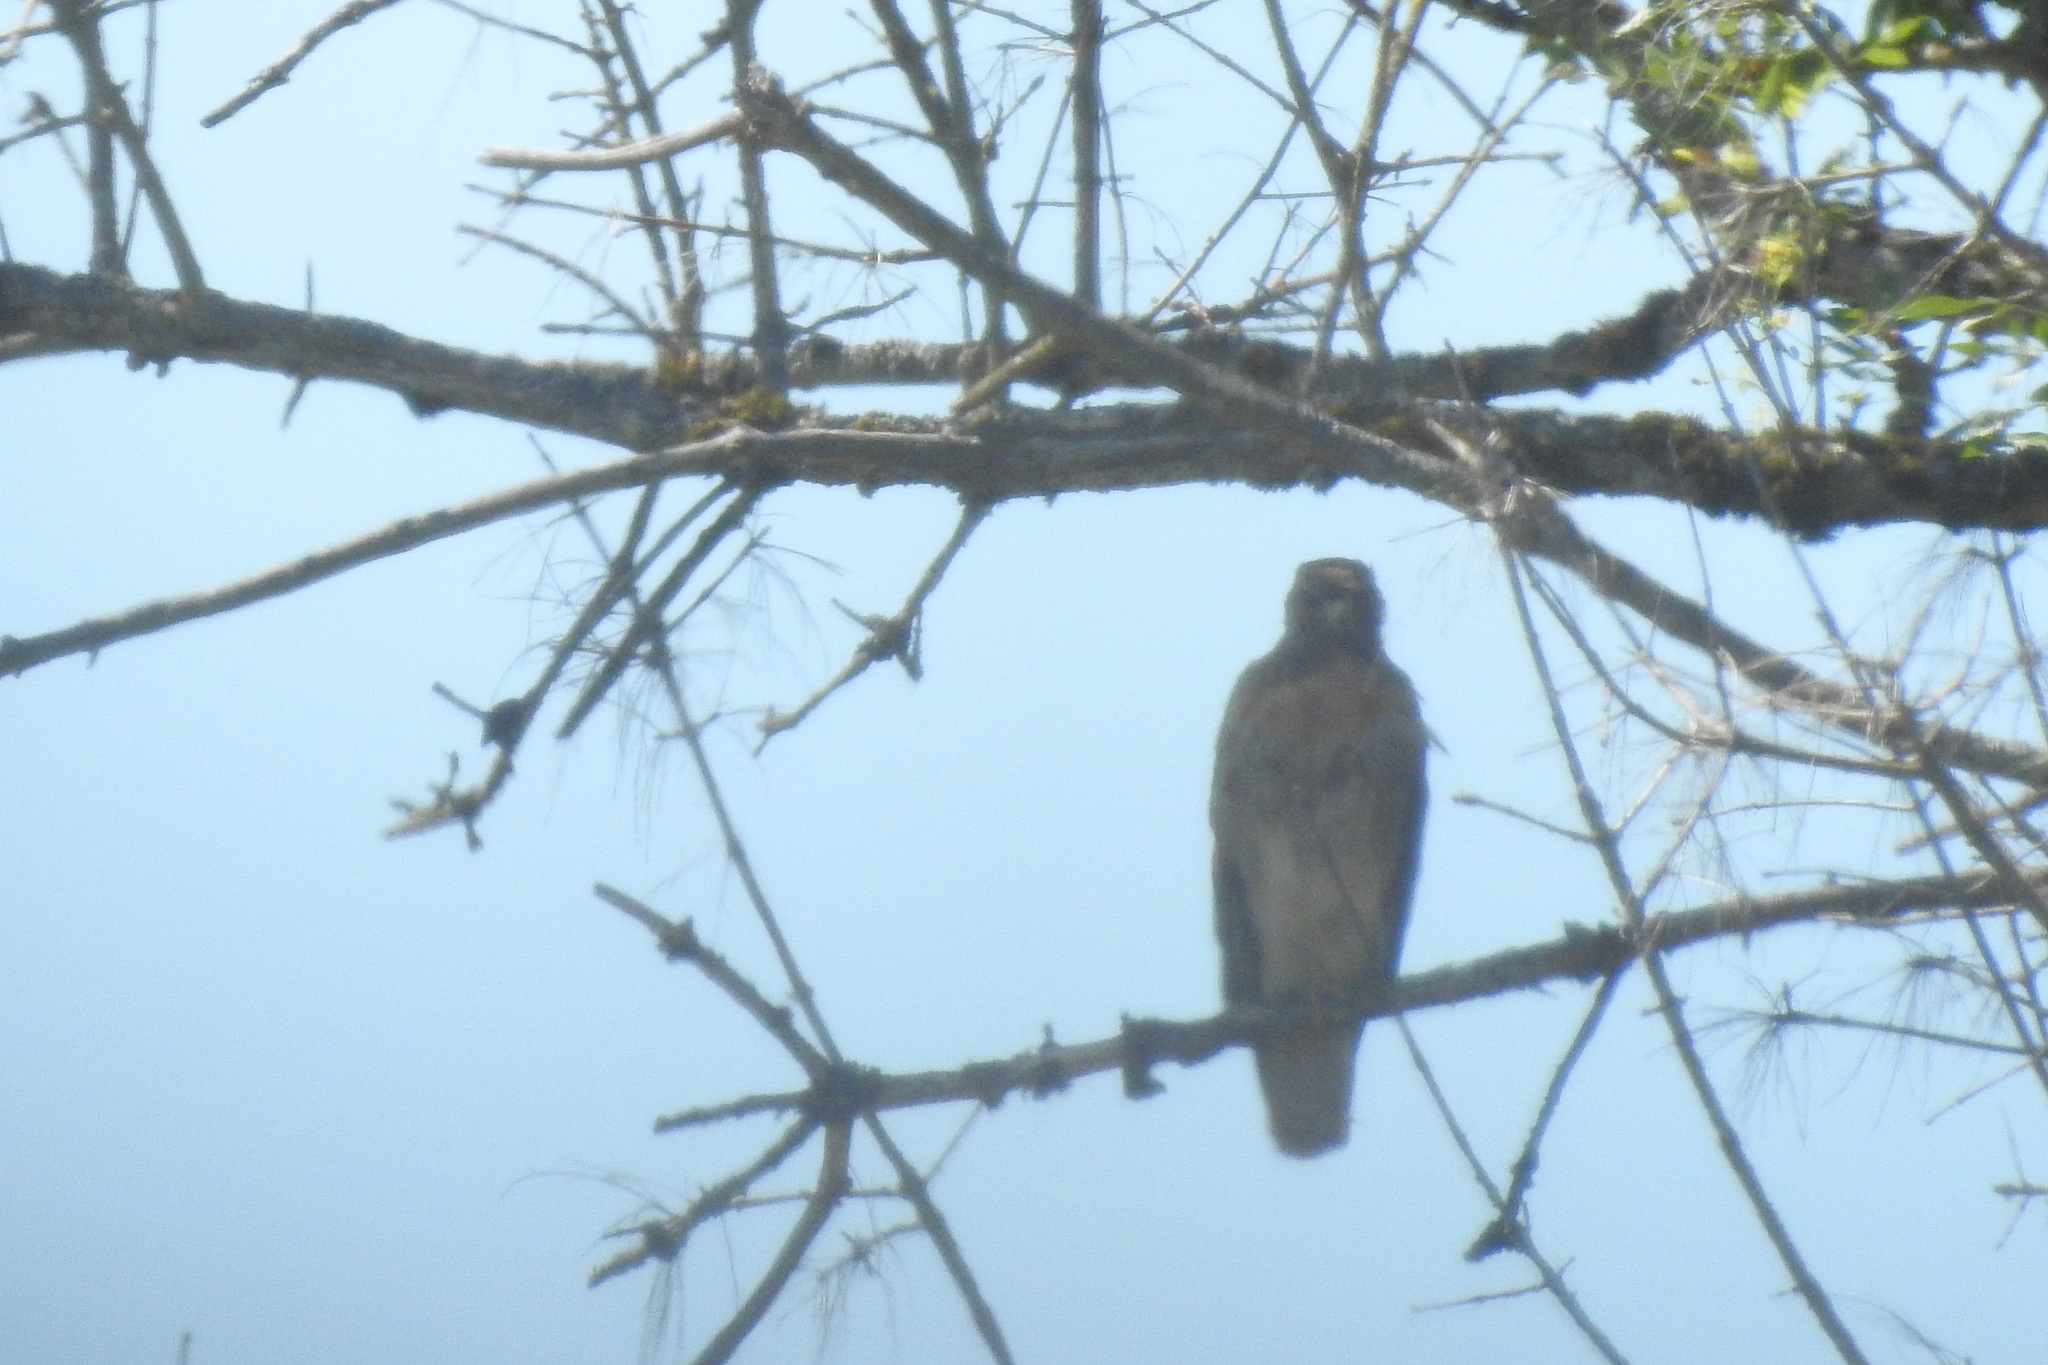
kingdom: Animalia
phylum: Chordata
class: Aves
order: Accipitriformes
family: Accipitridae
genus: Buteo
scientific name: Buteo jamaicensis
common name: Red-tailed hawk
